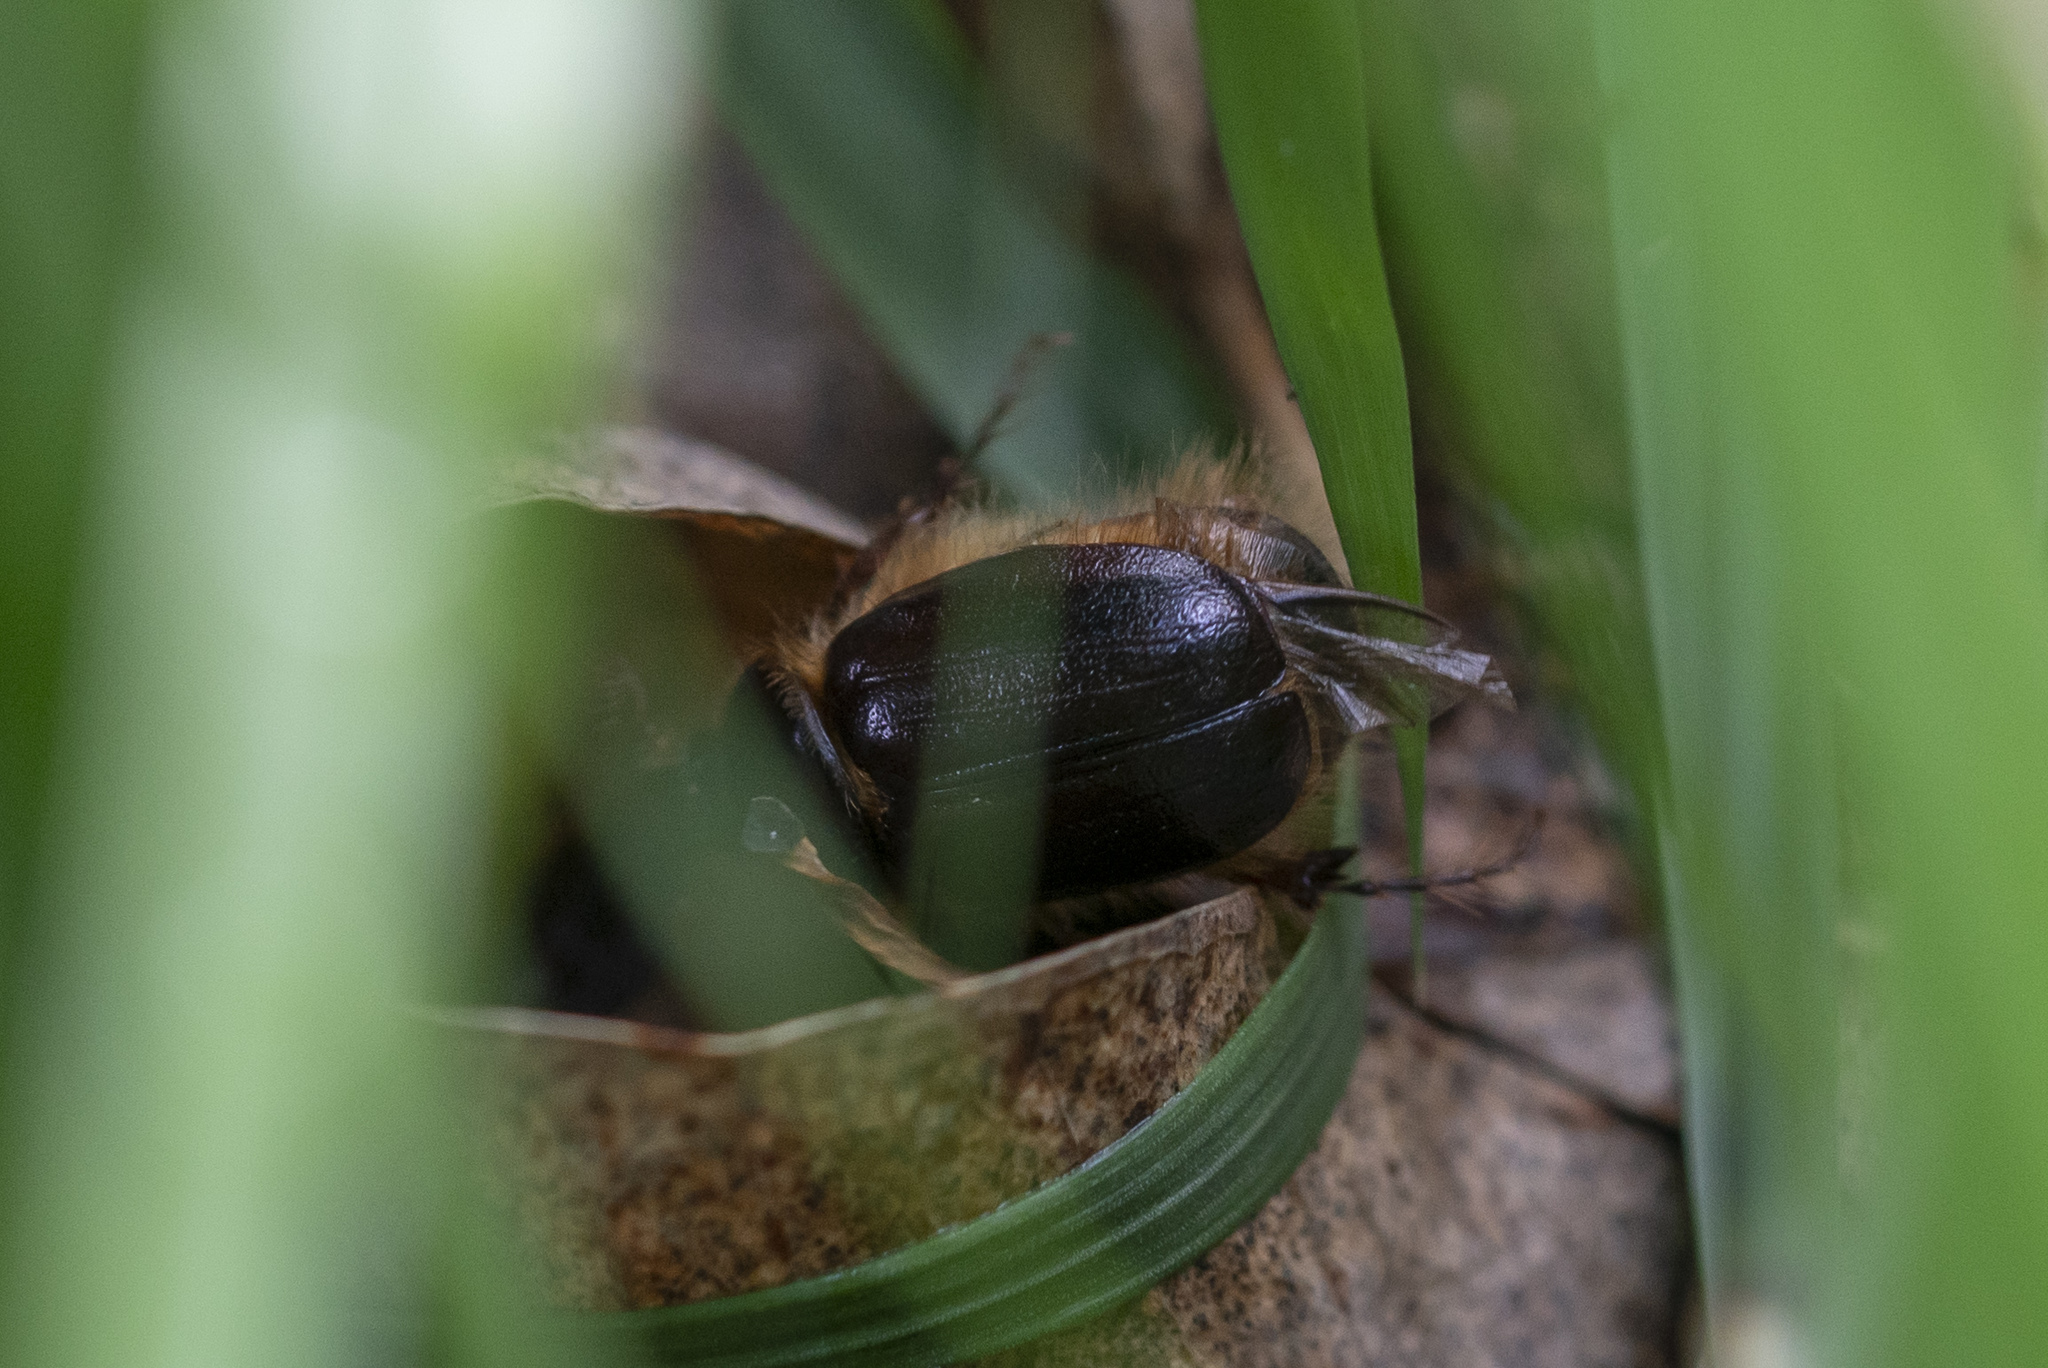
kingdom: Animalia
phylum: Arthropoda
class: Insecta
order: Coleoptera
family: Scarabaeidae
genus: Elaphocera
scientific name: Elaphocera suturalis
